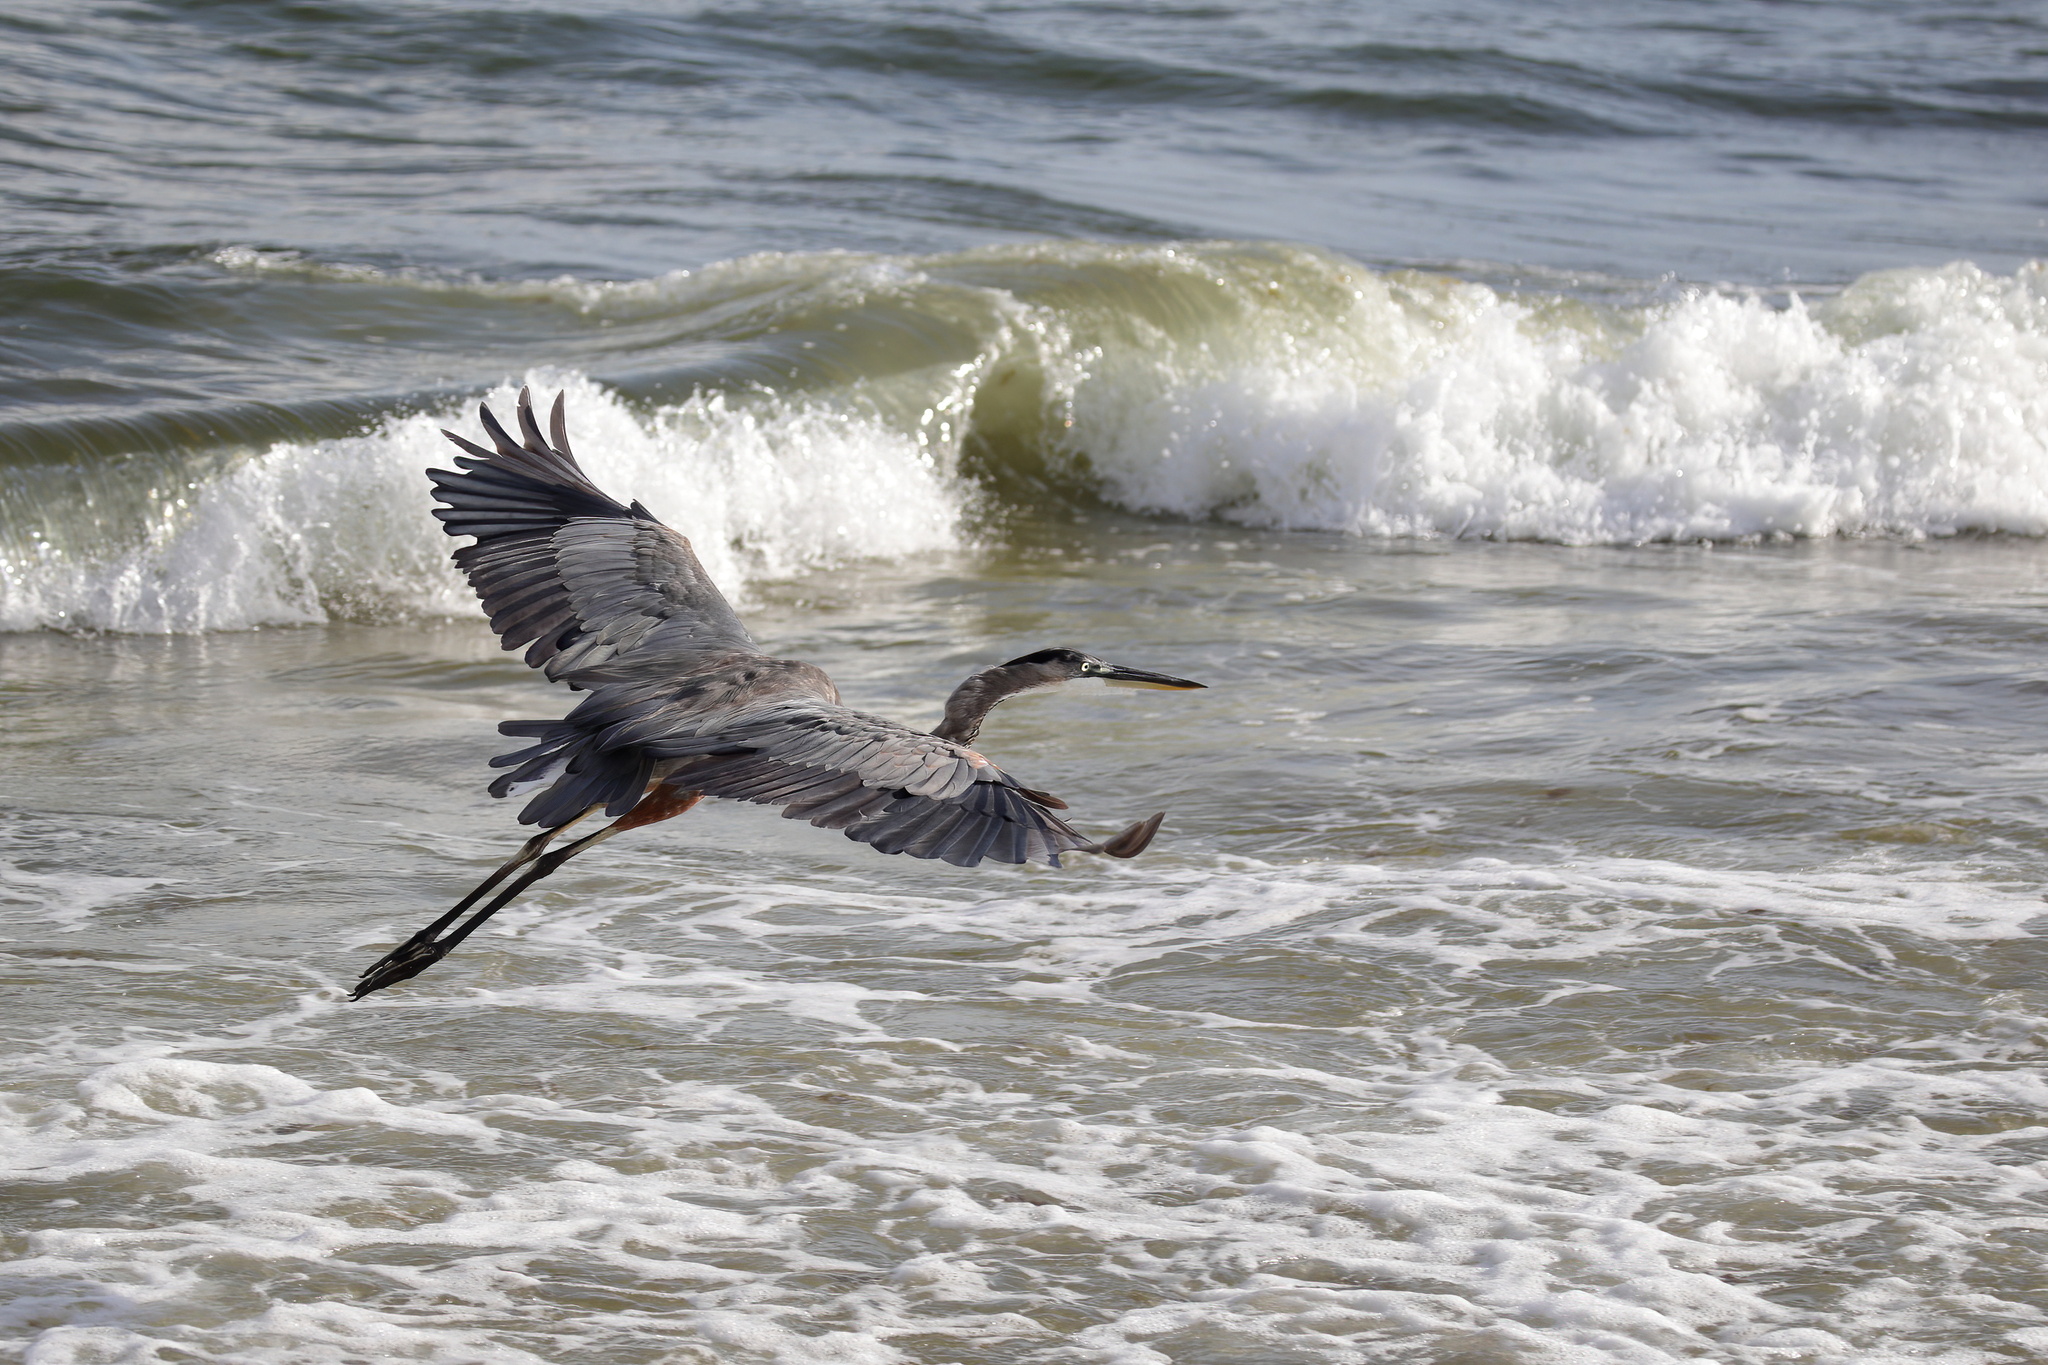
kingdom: Animalia
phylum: Chordata
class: Aves
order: Pelecaniformes
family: Ardeidae
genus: Ardea
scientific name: Ardea herodias
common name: Great blue heron
